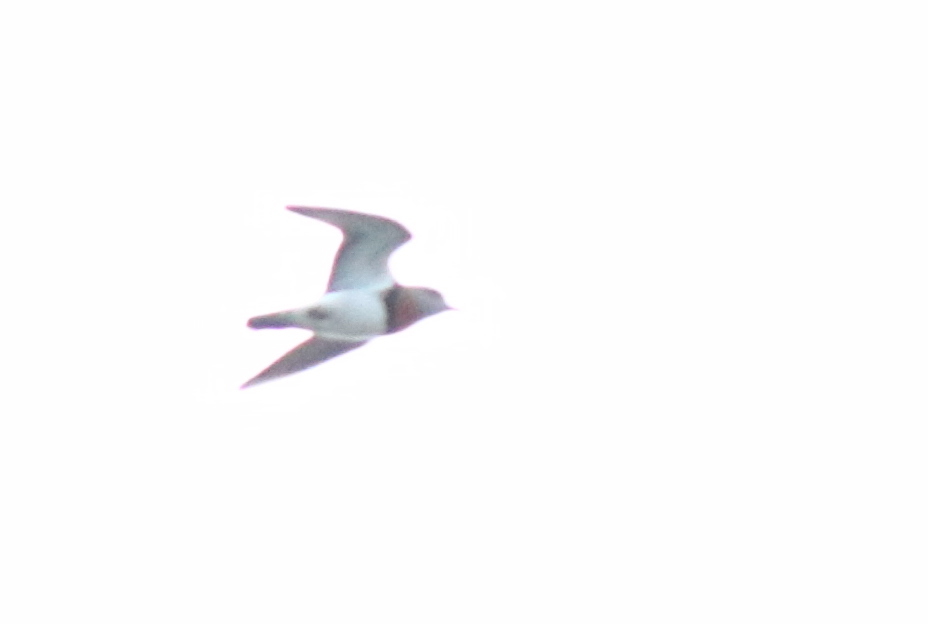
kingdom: Animalia
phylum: Chordata
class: Aves
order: Charadriiformes
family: Charadriidae
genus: Charadrius
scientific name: Charadrius modestus
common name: Rufous-chested plover
